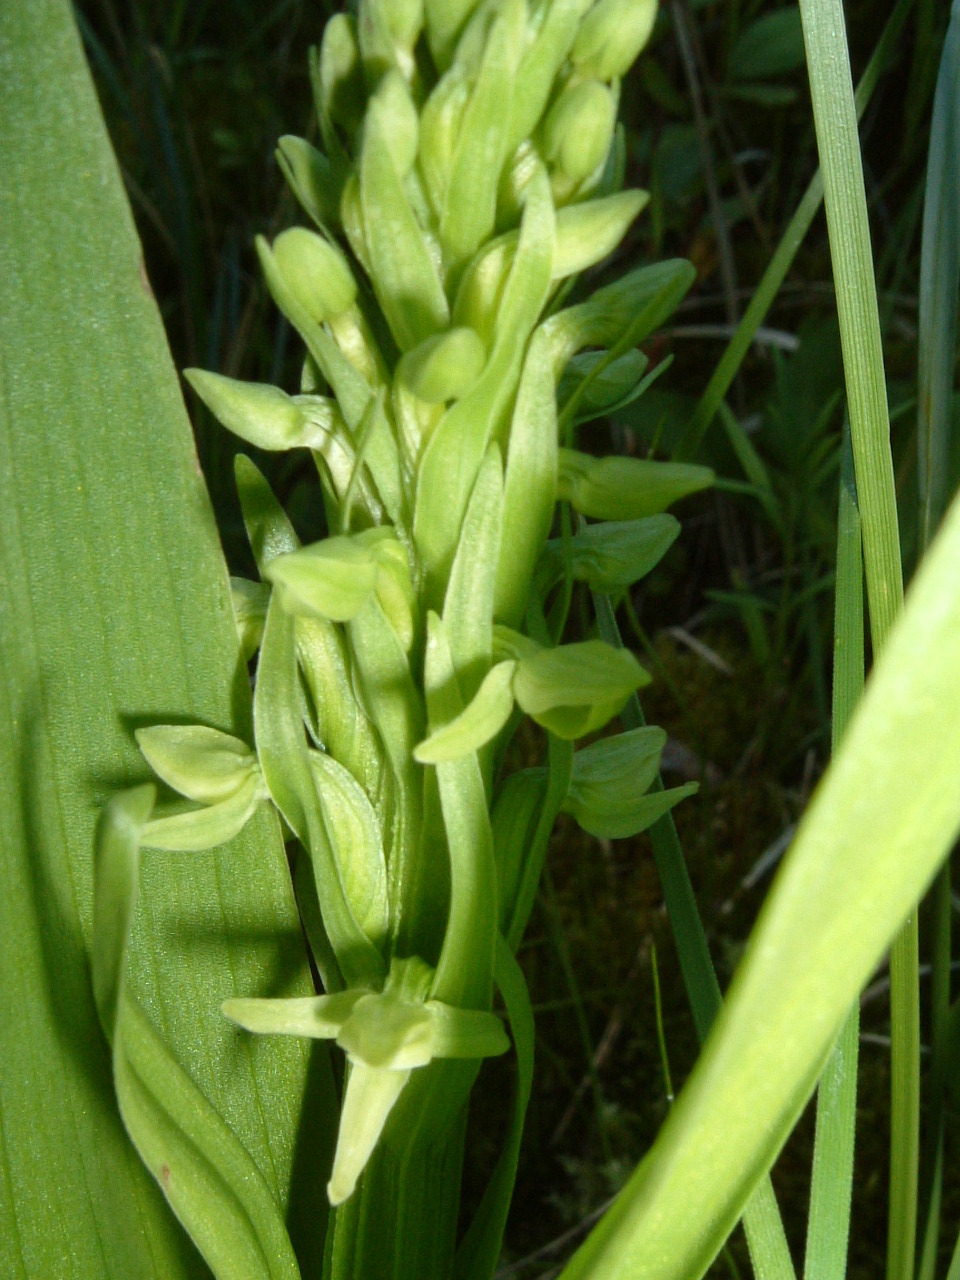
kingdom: Plantae
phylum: Tracheophyta
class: Liliopsida
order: Asparagales
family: Orchidaceae
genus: Platanthera
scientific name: Platanthera huronensis
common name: Fragrant green orchid
